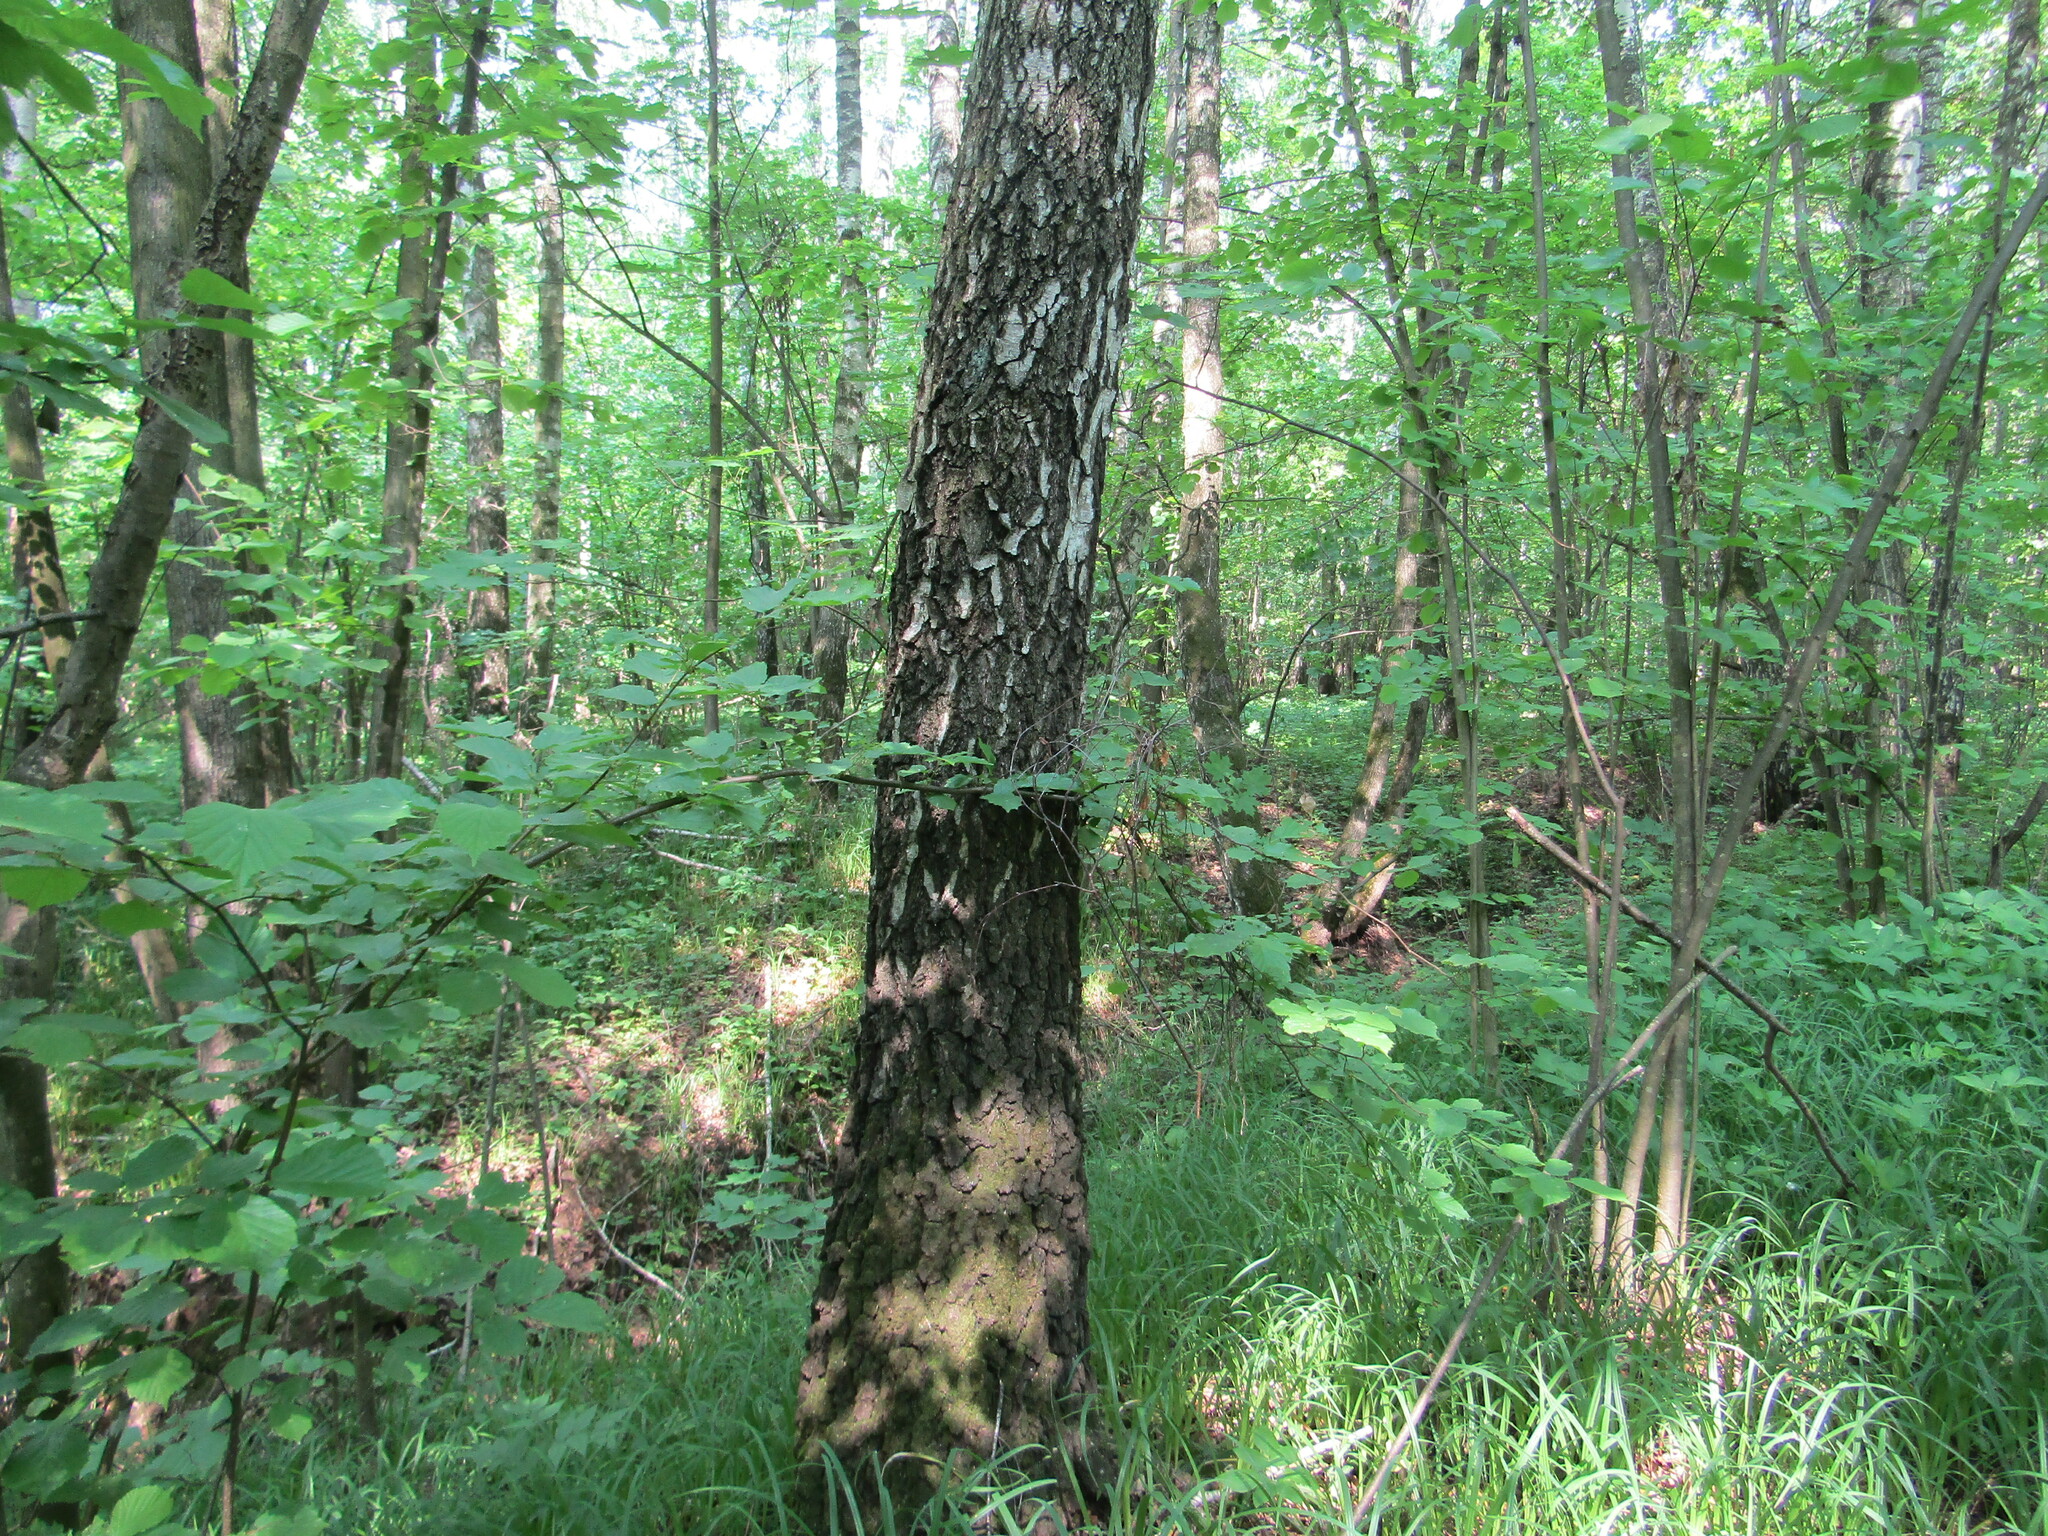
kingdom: Plantae
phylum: Tracheophyta
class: Magnoliopsida
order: Fagales
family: Betulaceae
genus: Betula
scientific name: Betula pendula
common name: Silver birch
